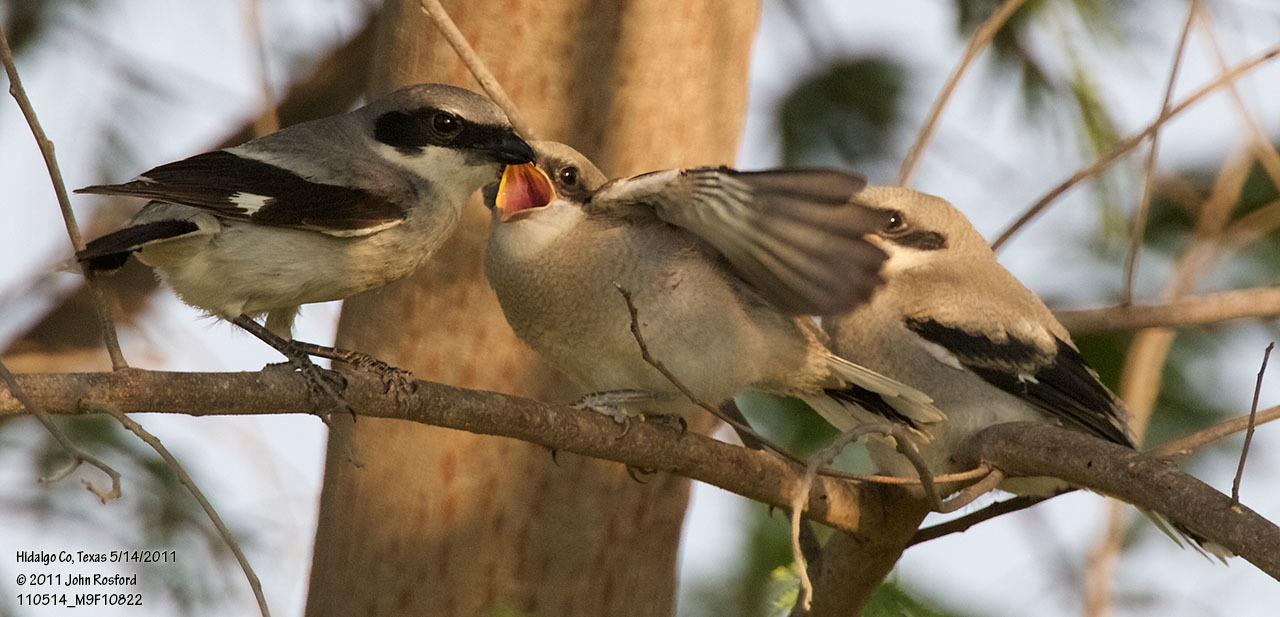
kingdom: Animalia
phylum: Chordata
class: Aves
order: Passeriformes
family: Laniidae
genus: Lanius
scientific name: Lanius ludovicianus
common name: Loggerhead shrike
